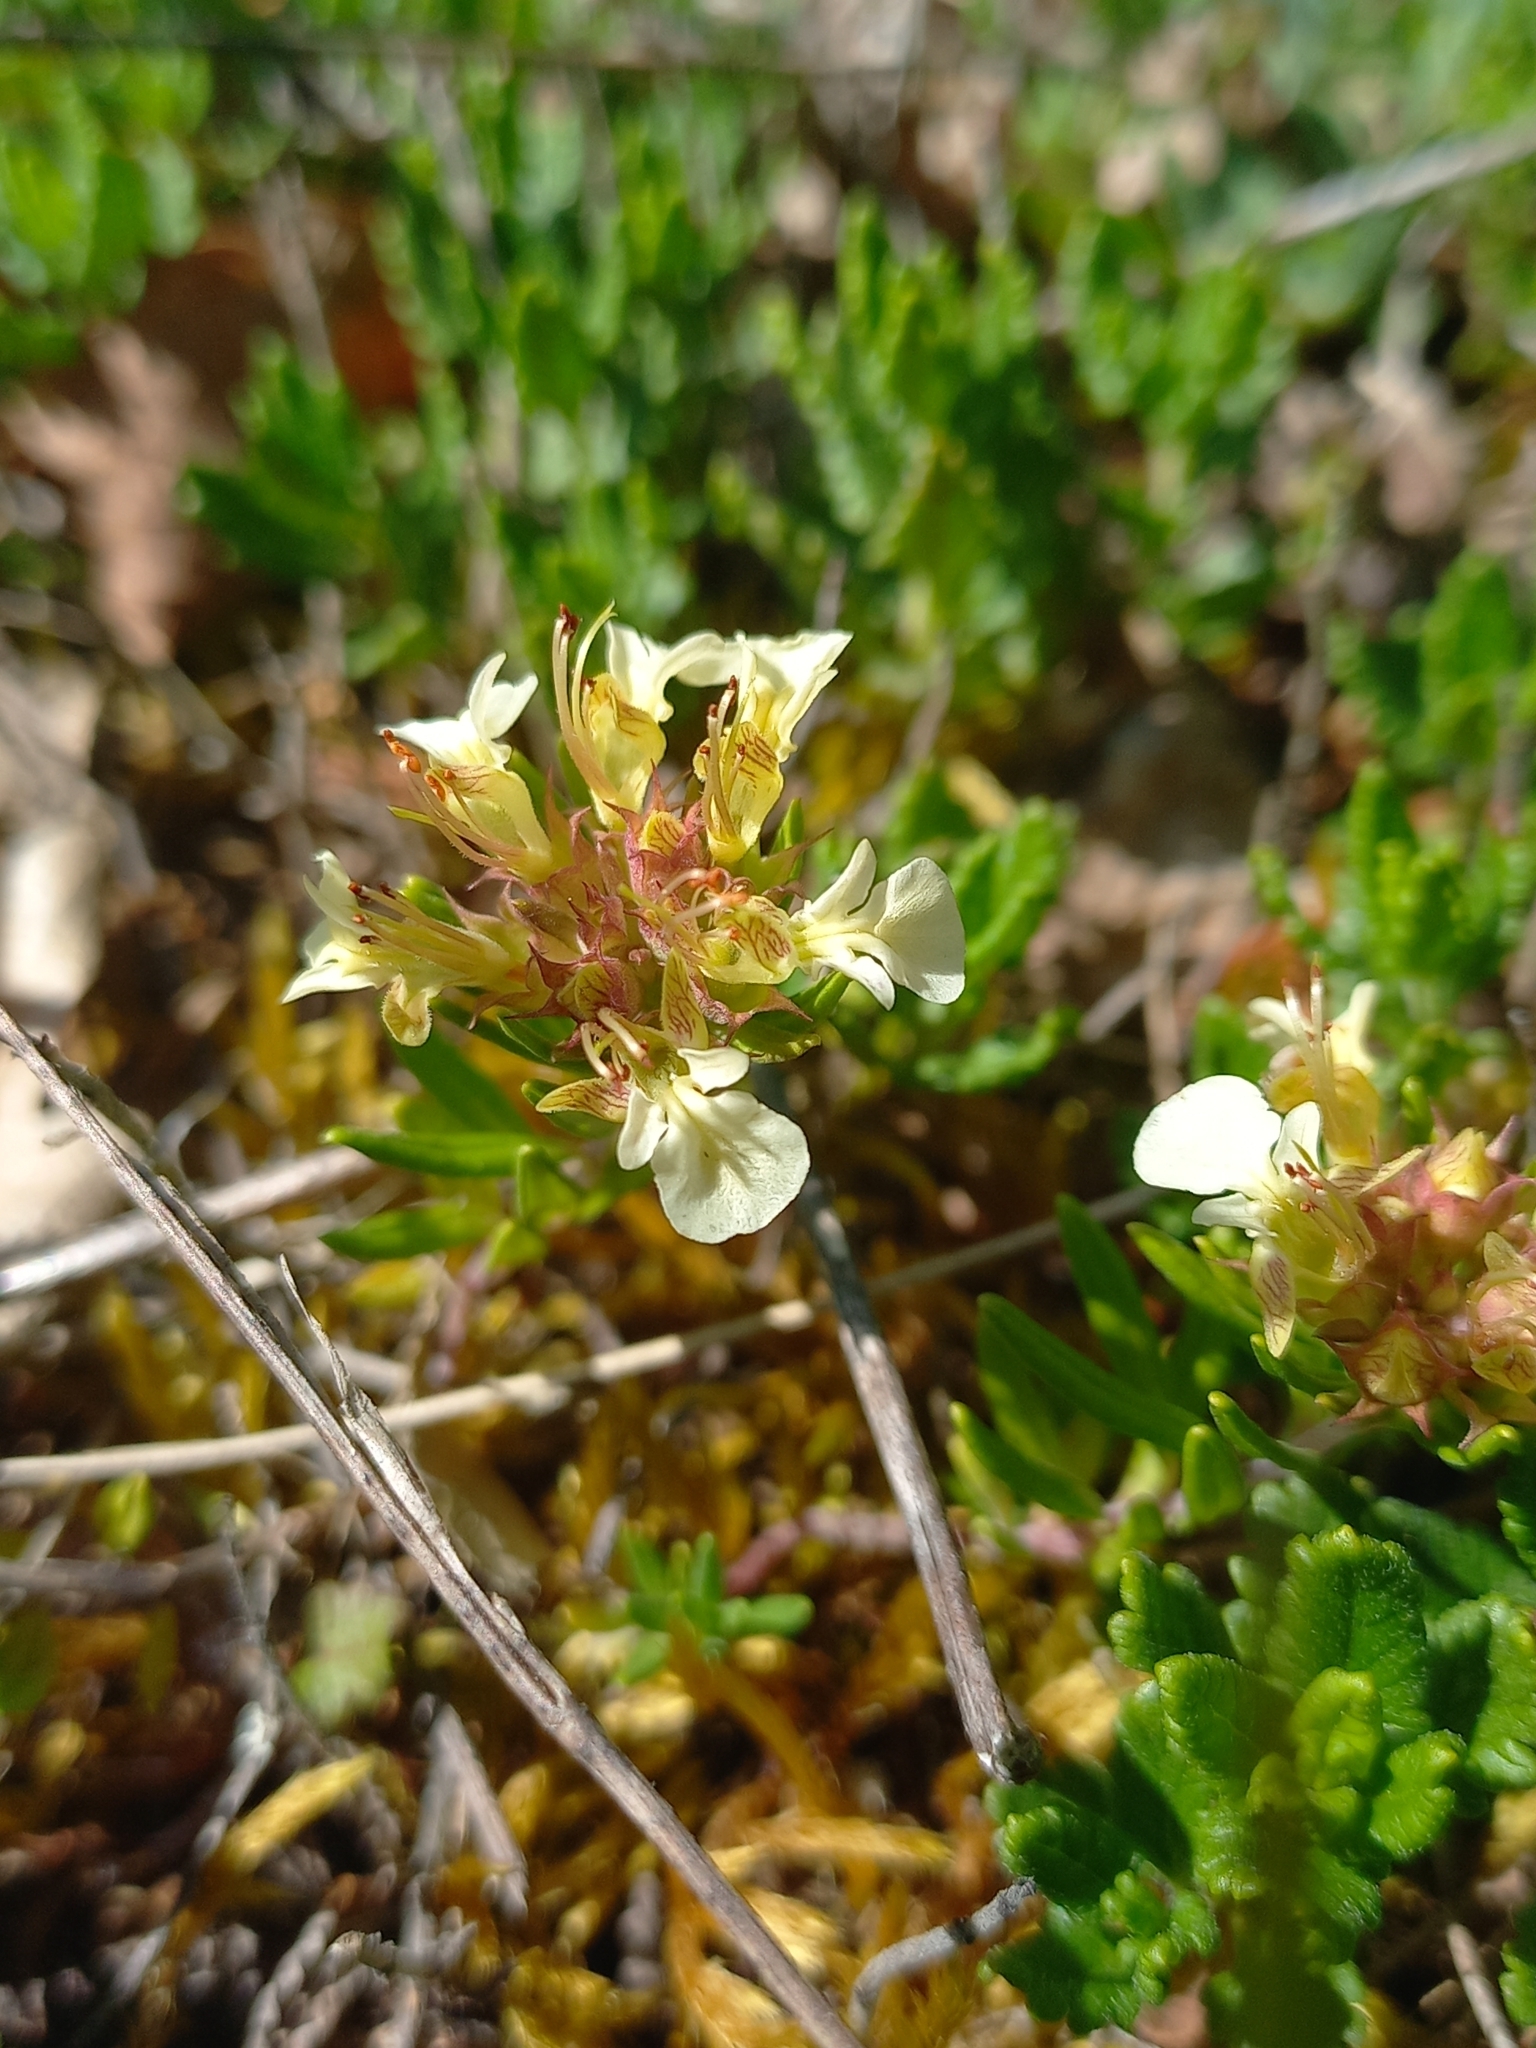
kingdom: Plantae
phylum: Tracheophyta
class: Magnoliopsida
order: Lamiales
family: Lamiaceae
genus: Teucrium
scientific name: Teucrium montanum
